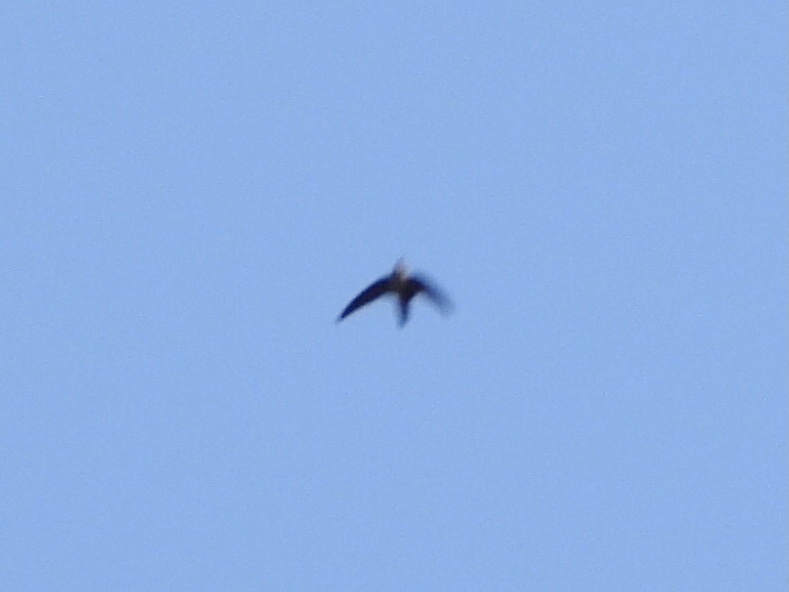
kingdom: Animalia
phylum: Chordata
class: Aves
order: Apodiformes
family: Apodidae
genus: Chaetura
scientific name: Chaetura vauxi
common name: Vaux's swift
